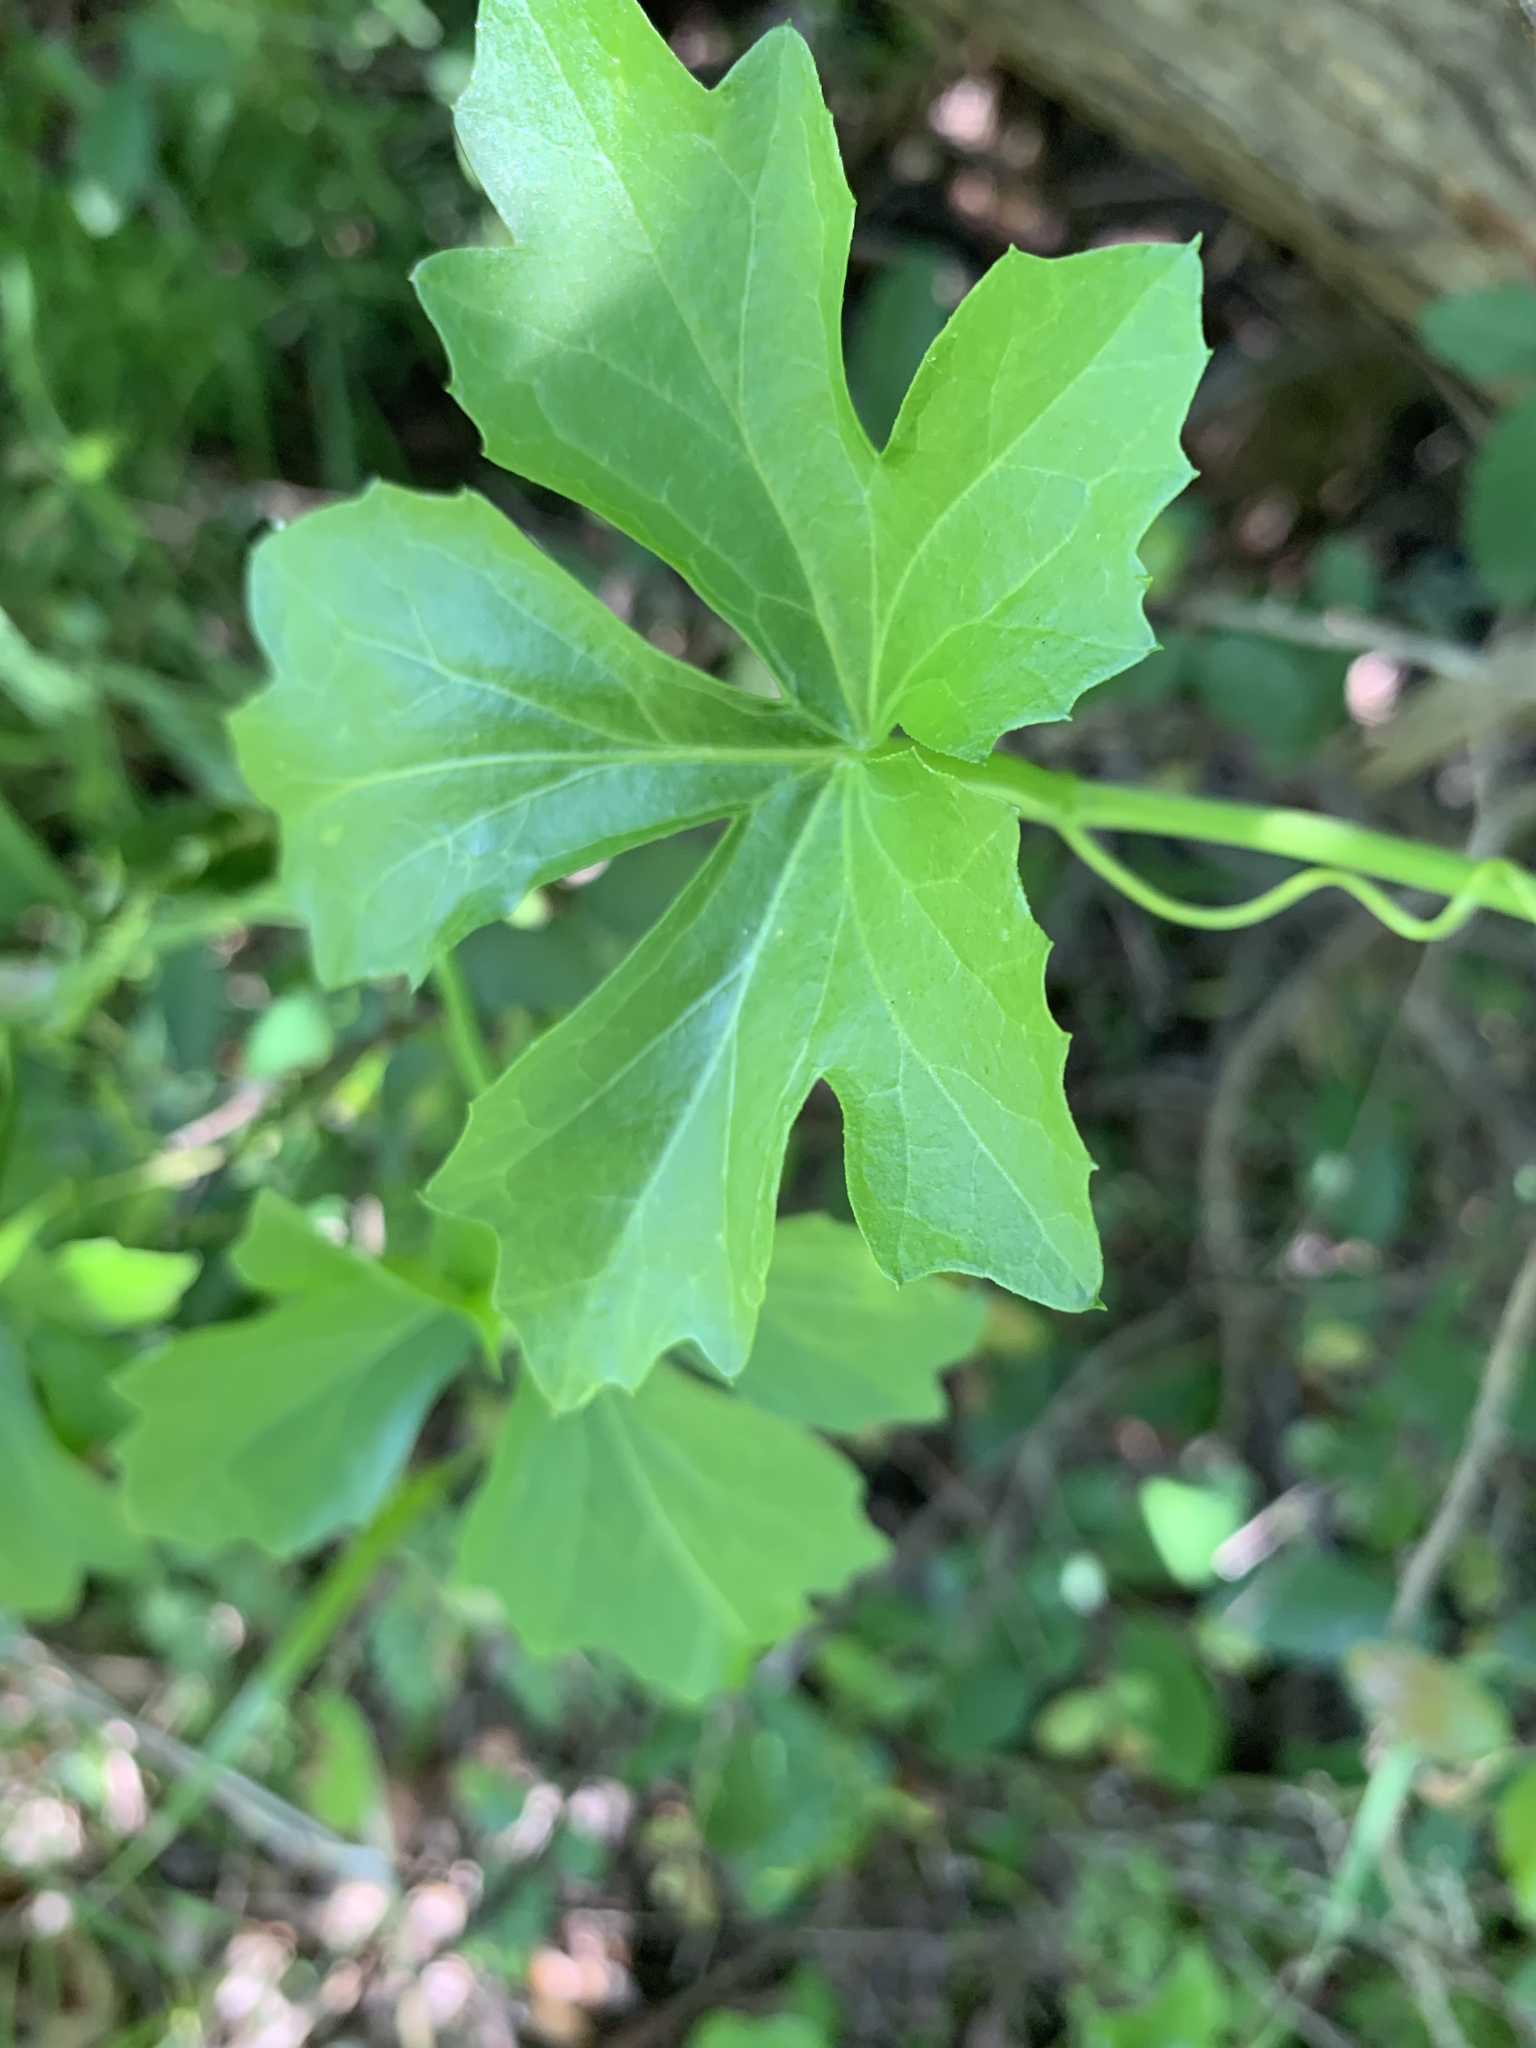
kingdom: Plantae
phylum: Tracheophyta
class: Magnoliopsida
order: Cucurbitales
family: Cucurbitaceae
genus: Ibervillea
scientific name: Ibervillea lindheimeri
